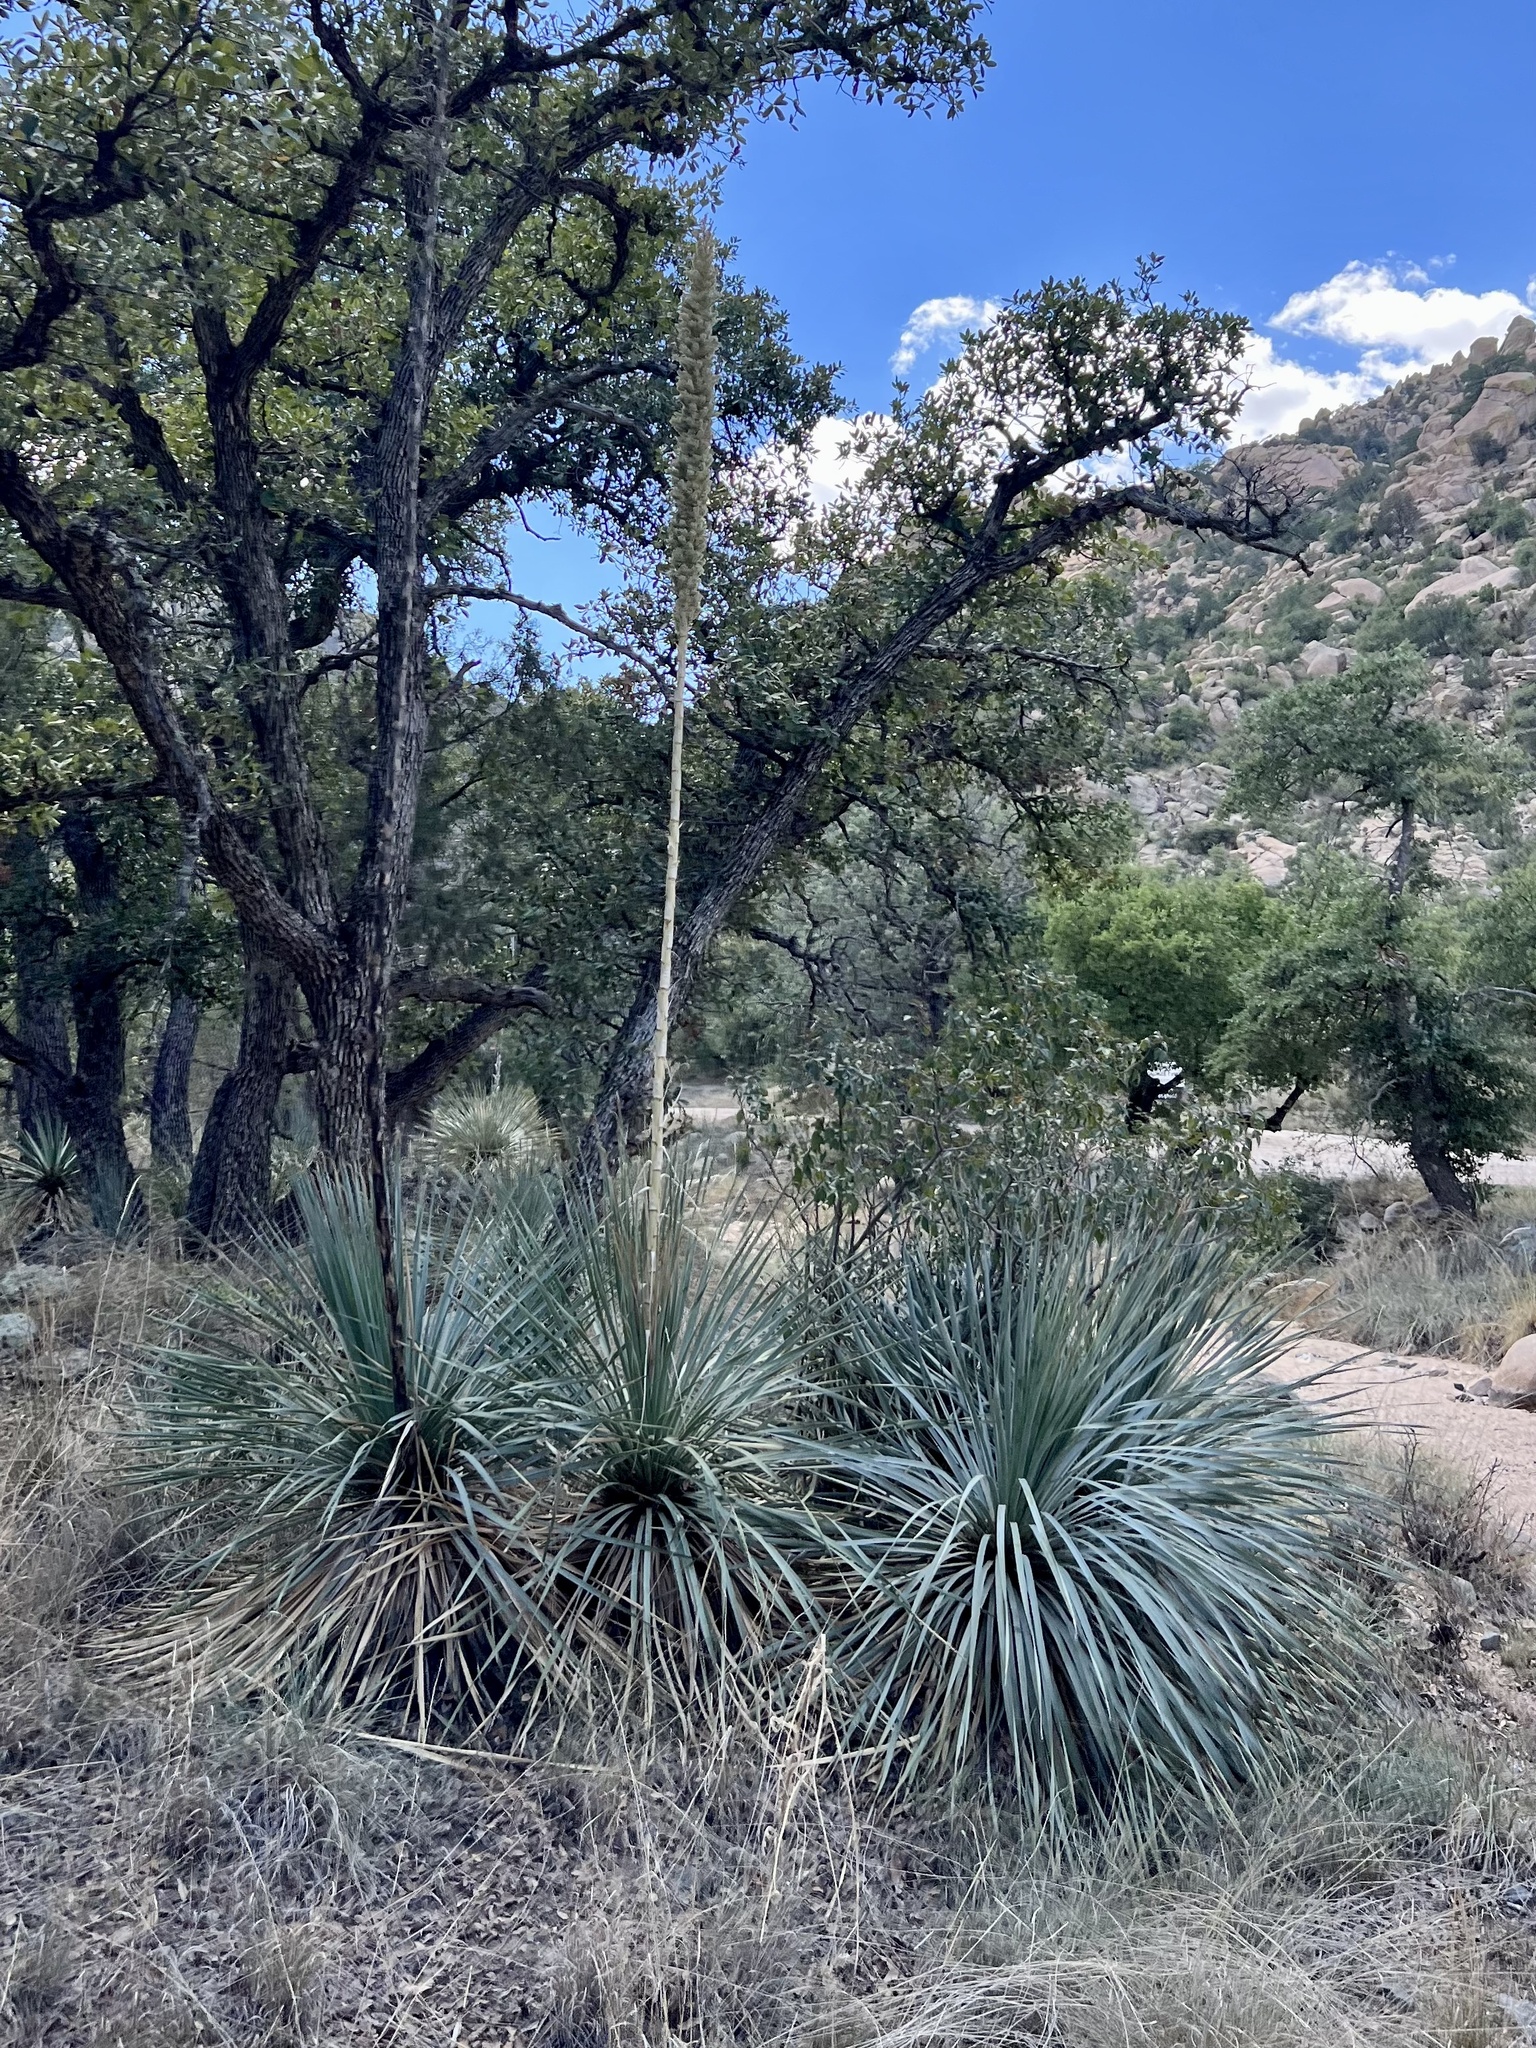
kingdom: Plantae
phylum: Tracheophyta
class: Liliopsida
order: Asparagales
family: Asparagaceae
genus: Dasylirion
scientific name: Dasylirion wheeleri
